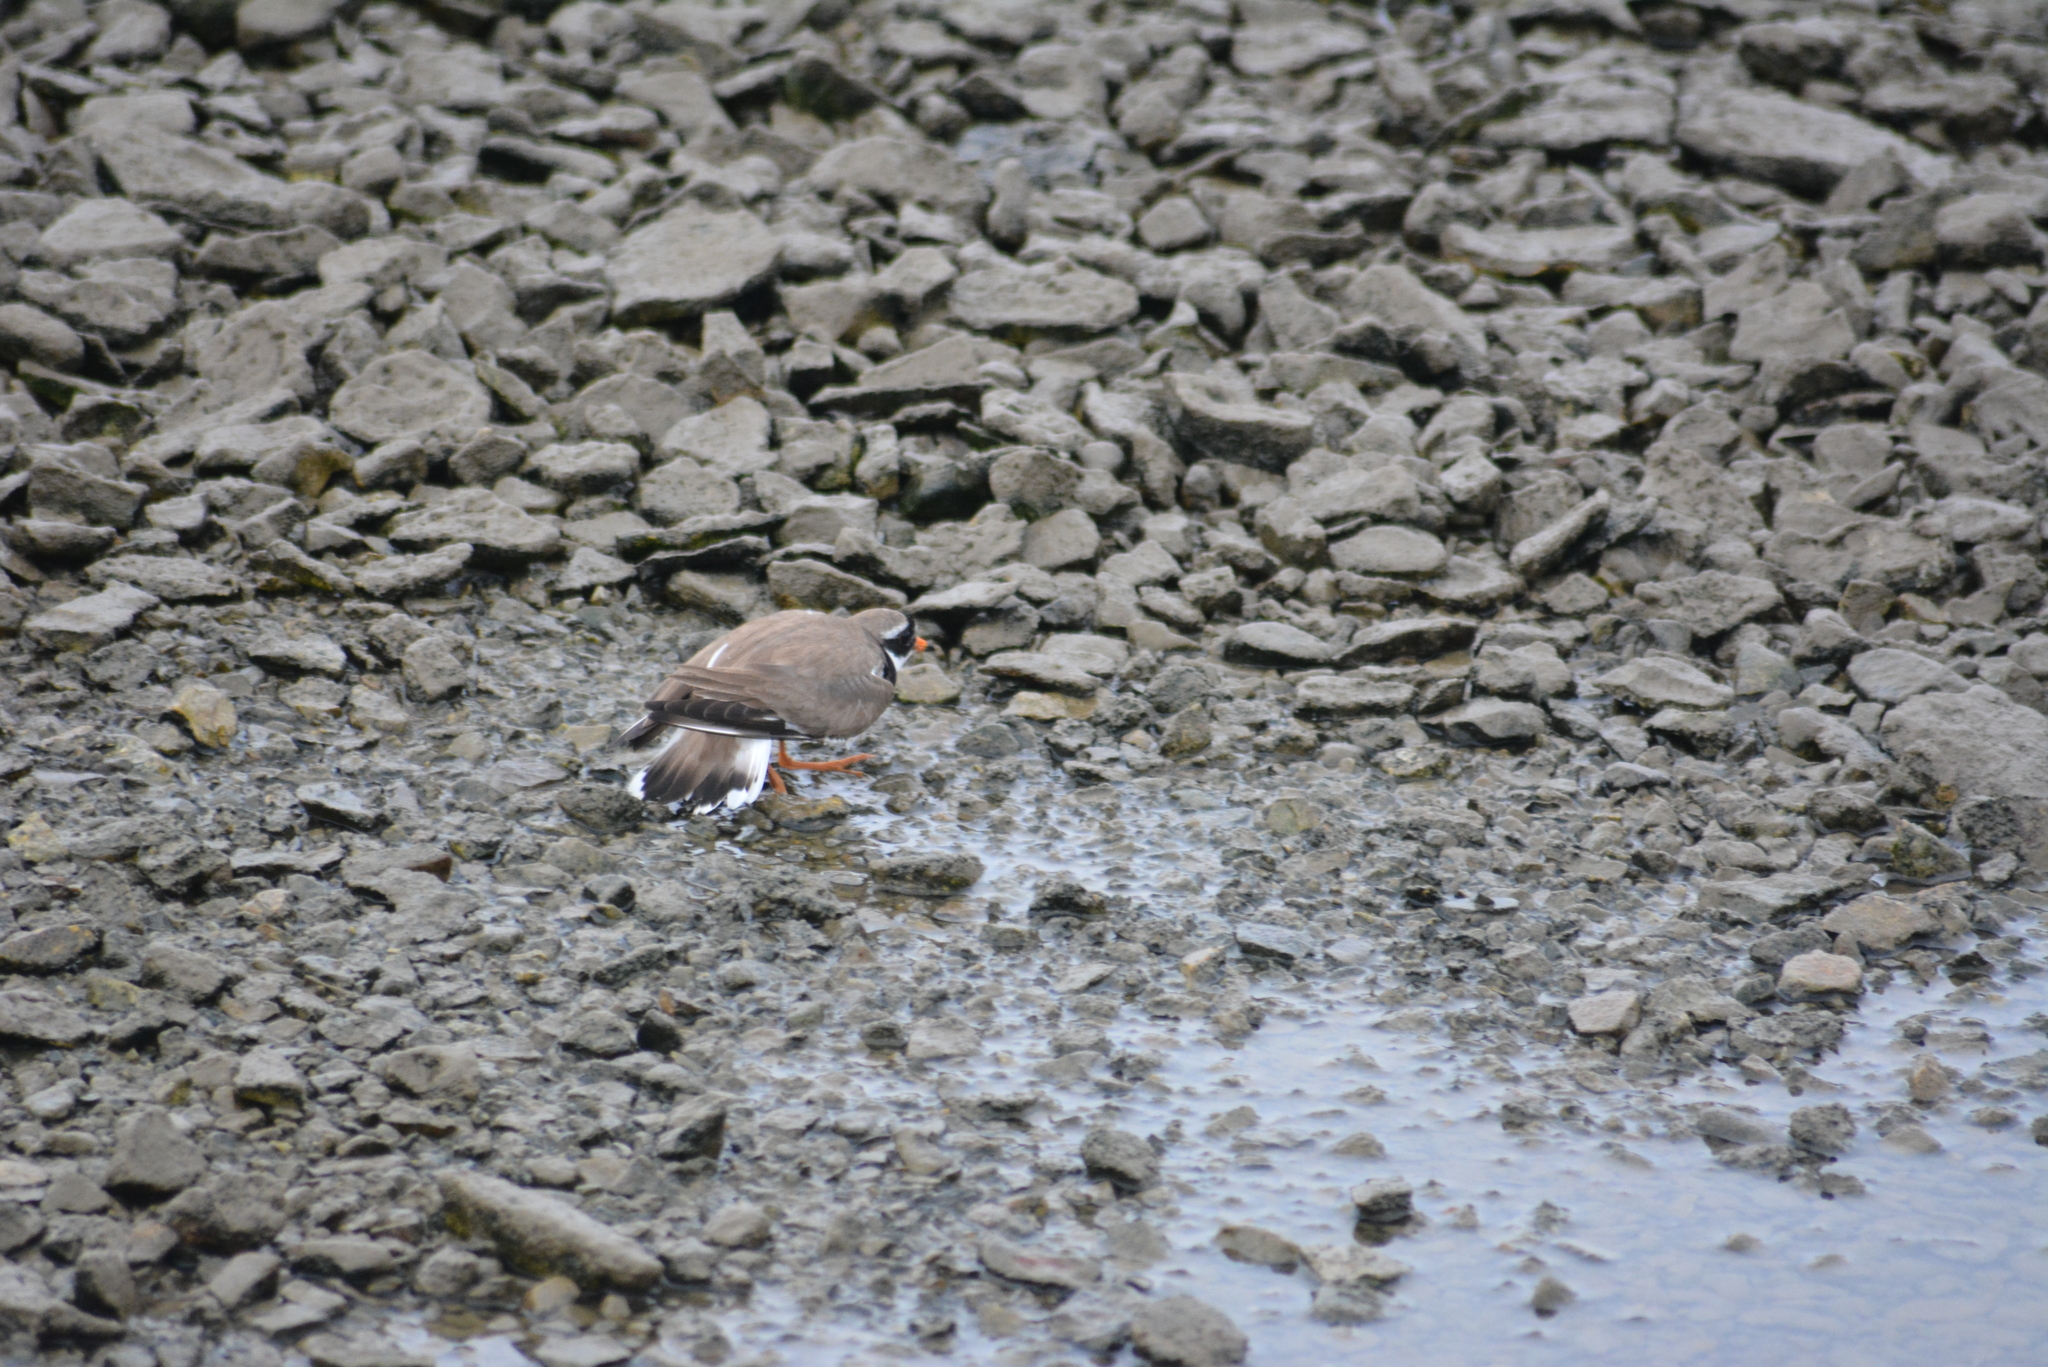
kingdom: Animalia
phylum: Chordata
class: Aves
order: Charadriiformes
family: Charadriidae
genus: Charadrius
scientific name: Charadrius hiaticula
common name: Common ringed plover
